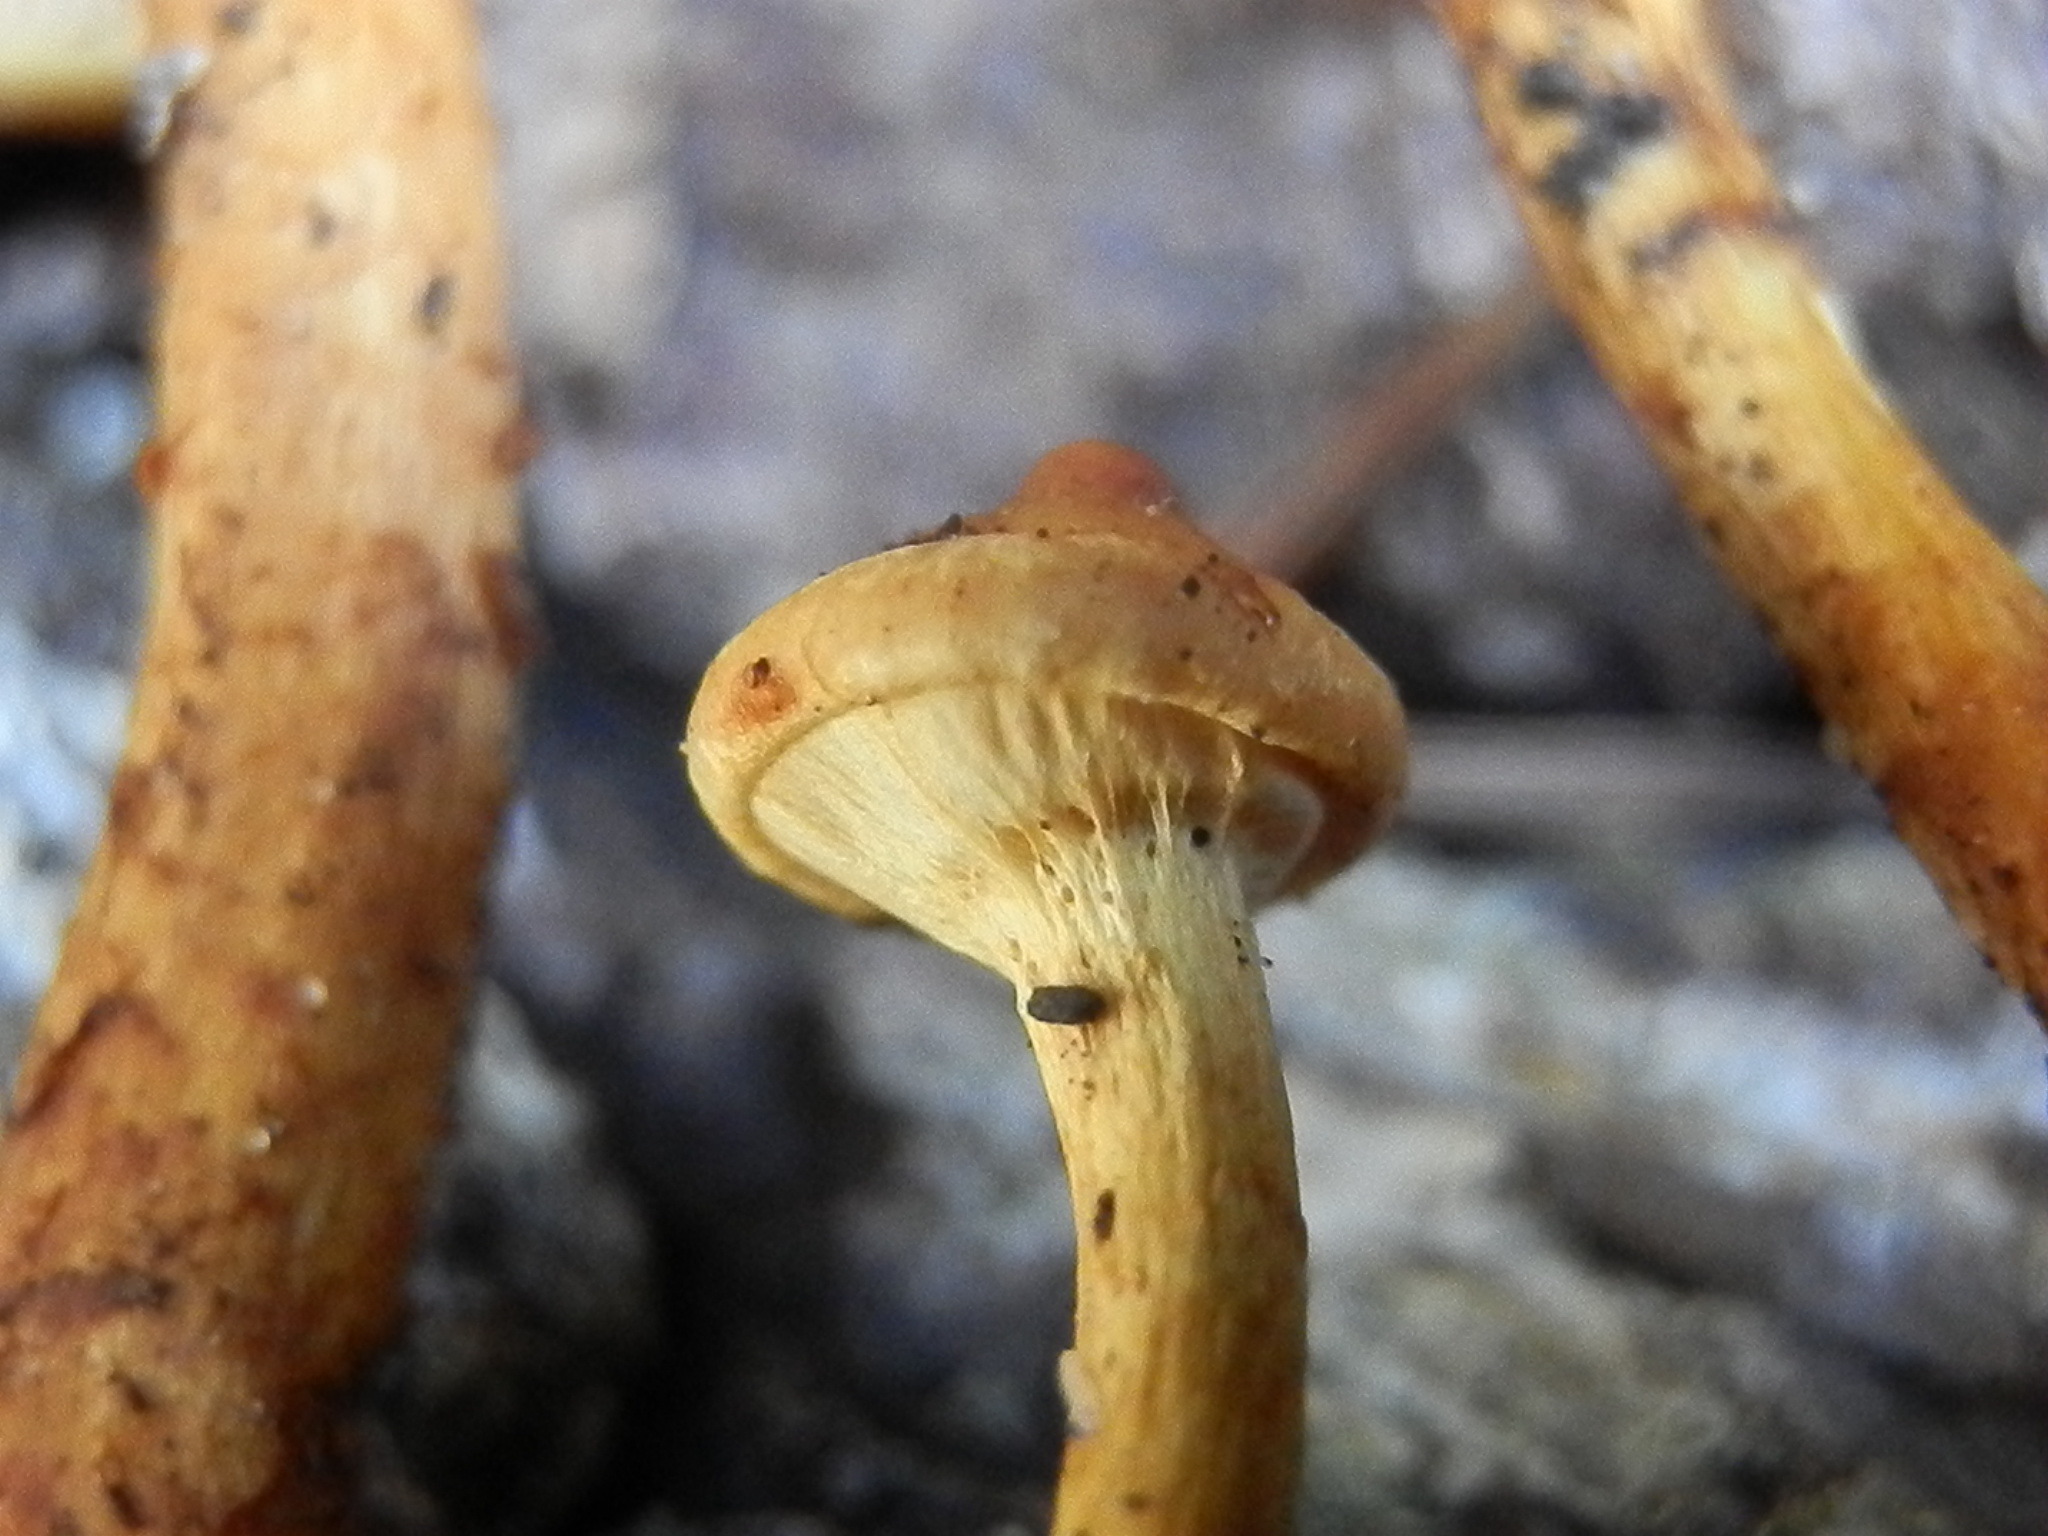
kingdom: Fungi
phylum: Basidiomycota
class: Agaricomycetes
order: Agaricales
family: Strophariaceae
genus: Pholiota
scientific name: Pholiota malicola
